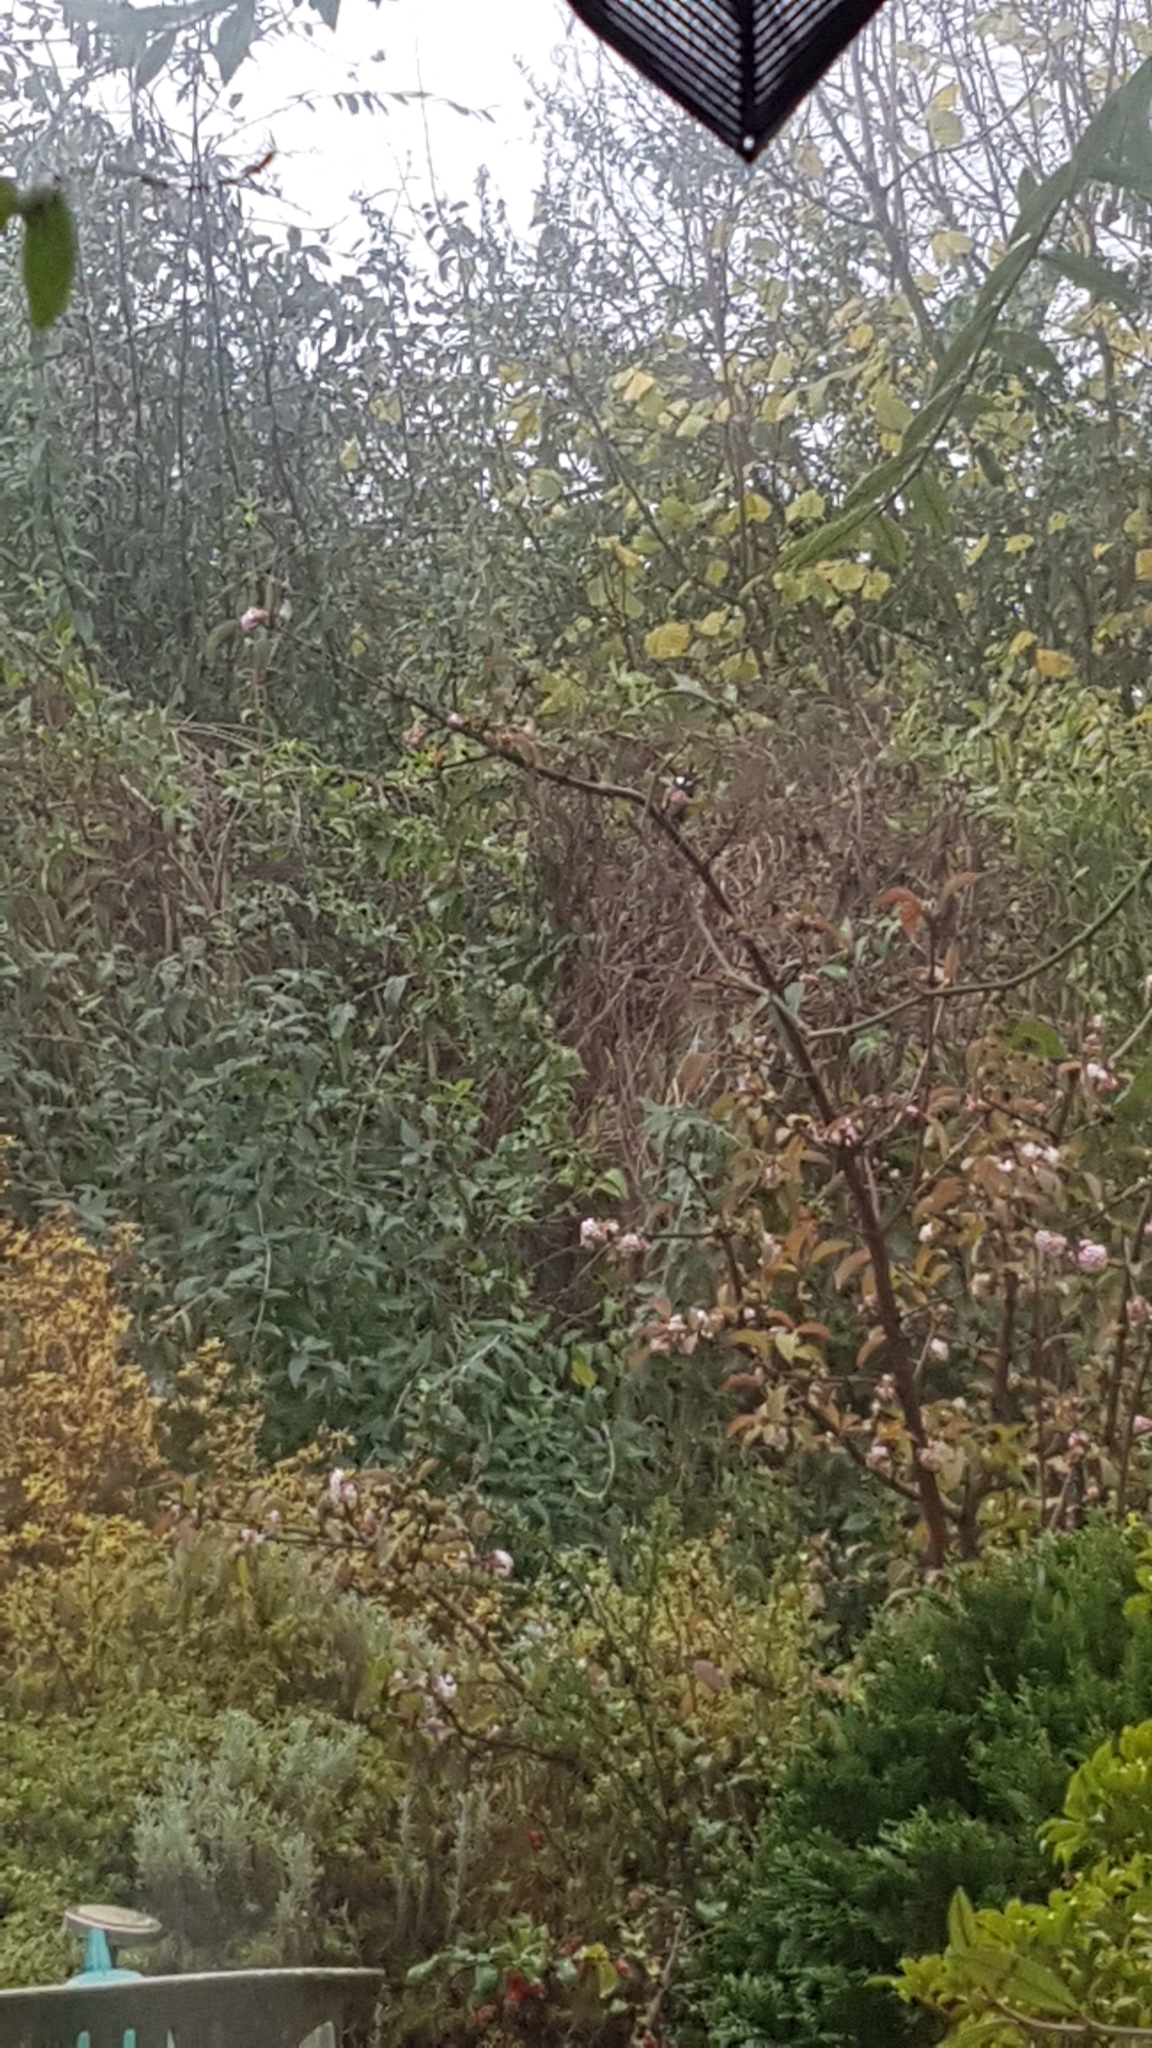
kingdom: Animalia
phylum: Chordata
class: Aves
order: Passeriformes
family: Paridae
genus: Parus
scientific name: Parus major
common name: Great tit
